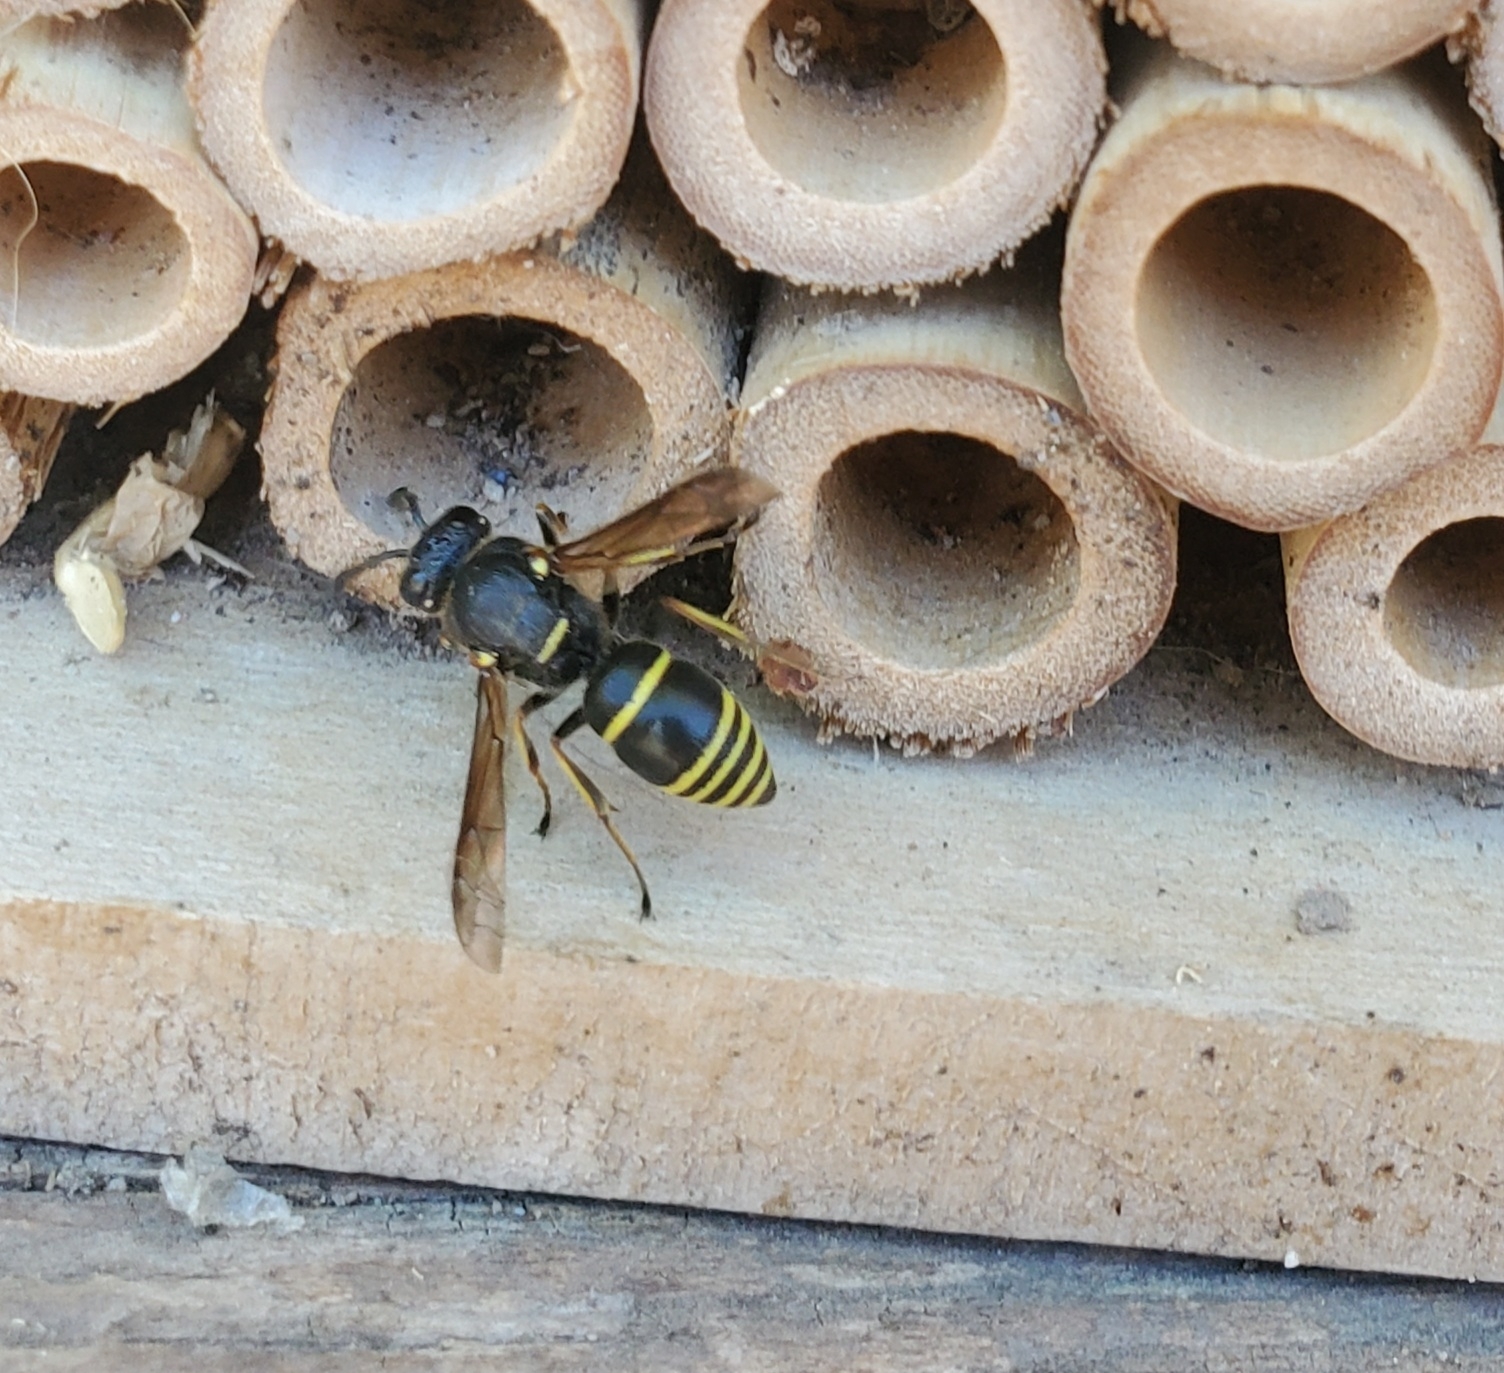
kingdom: Animalia
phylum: Arthropoda
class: Insecta
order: Hymenoptera
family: Eumenidae
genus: Euodynerus
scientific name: Euodynerus foraminatus
